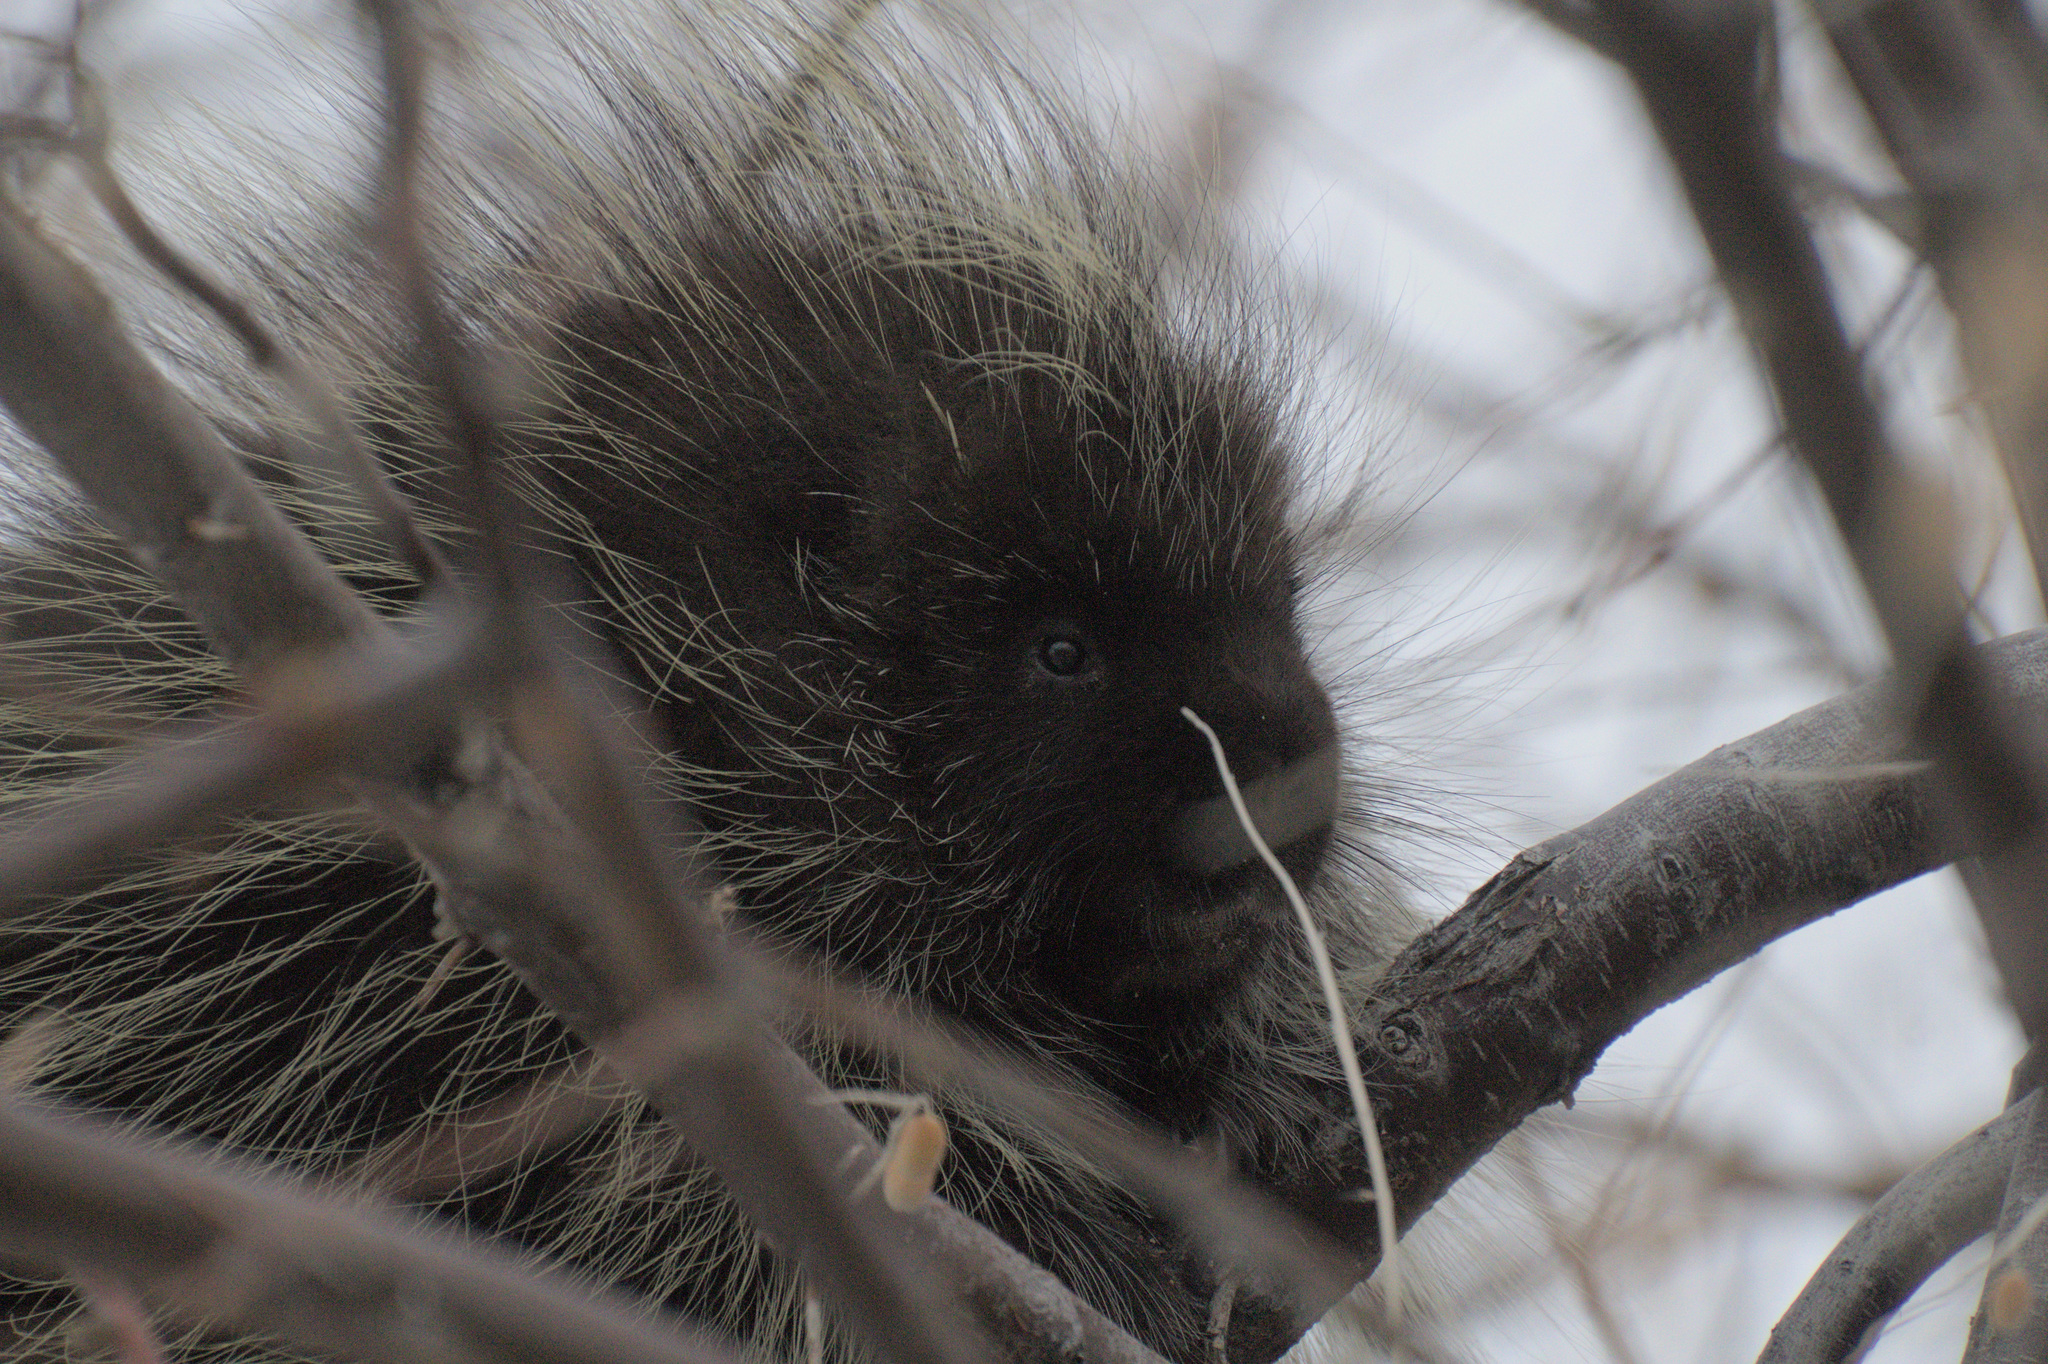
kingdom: Animalia
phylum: Chordata
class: Mammalia
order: Rodentia
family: Erethizontidae
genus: Erethizon
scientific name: Erethizon dorsatus
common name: North american porcupine
